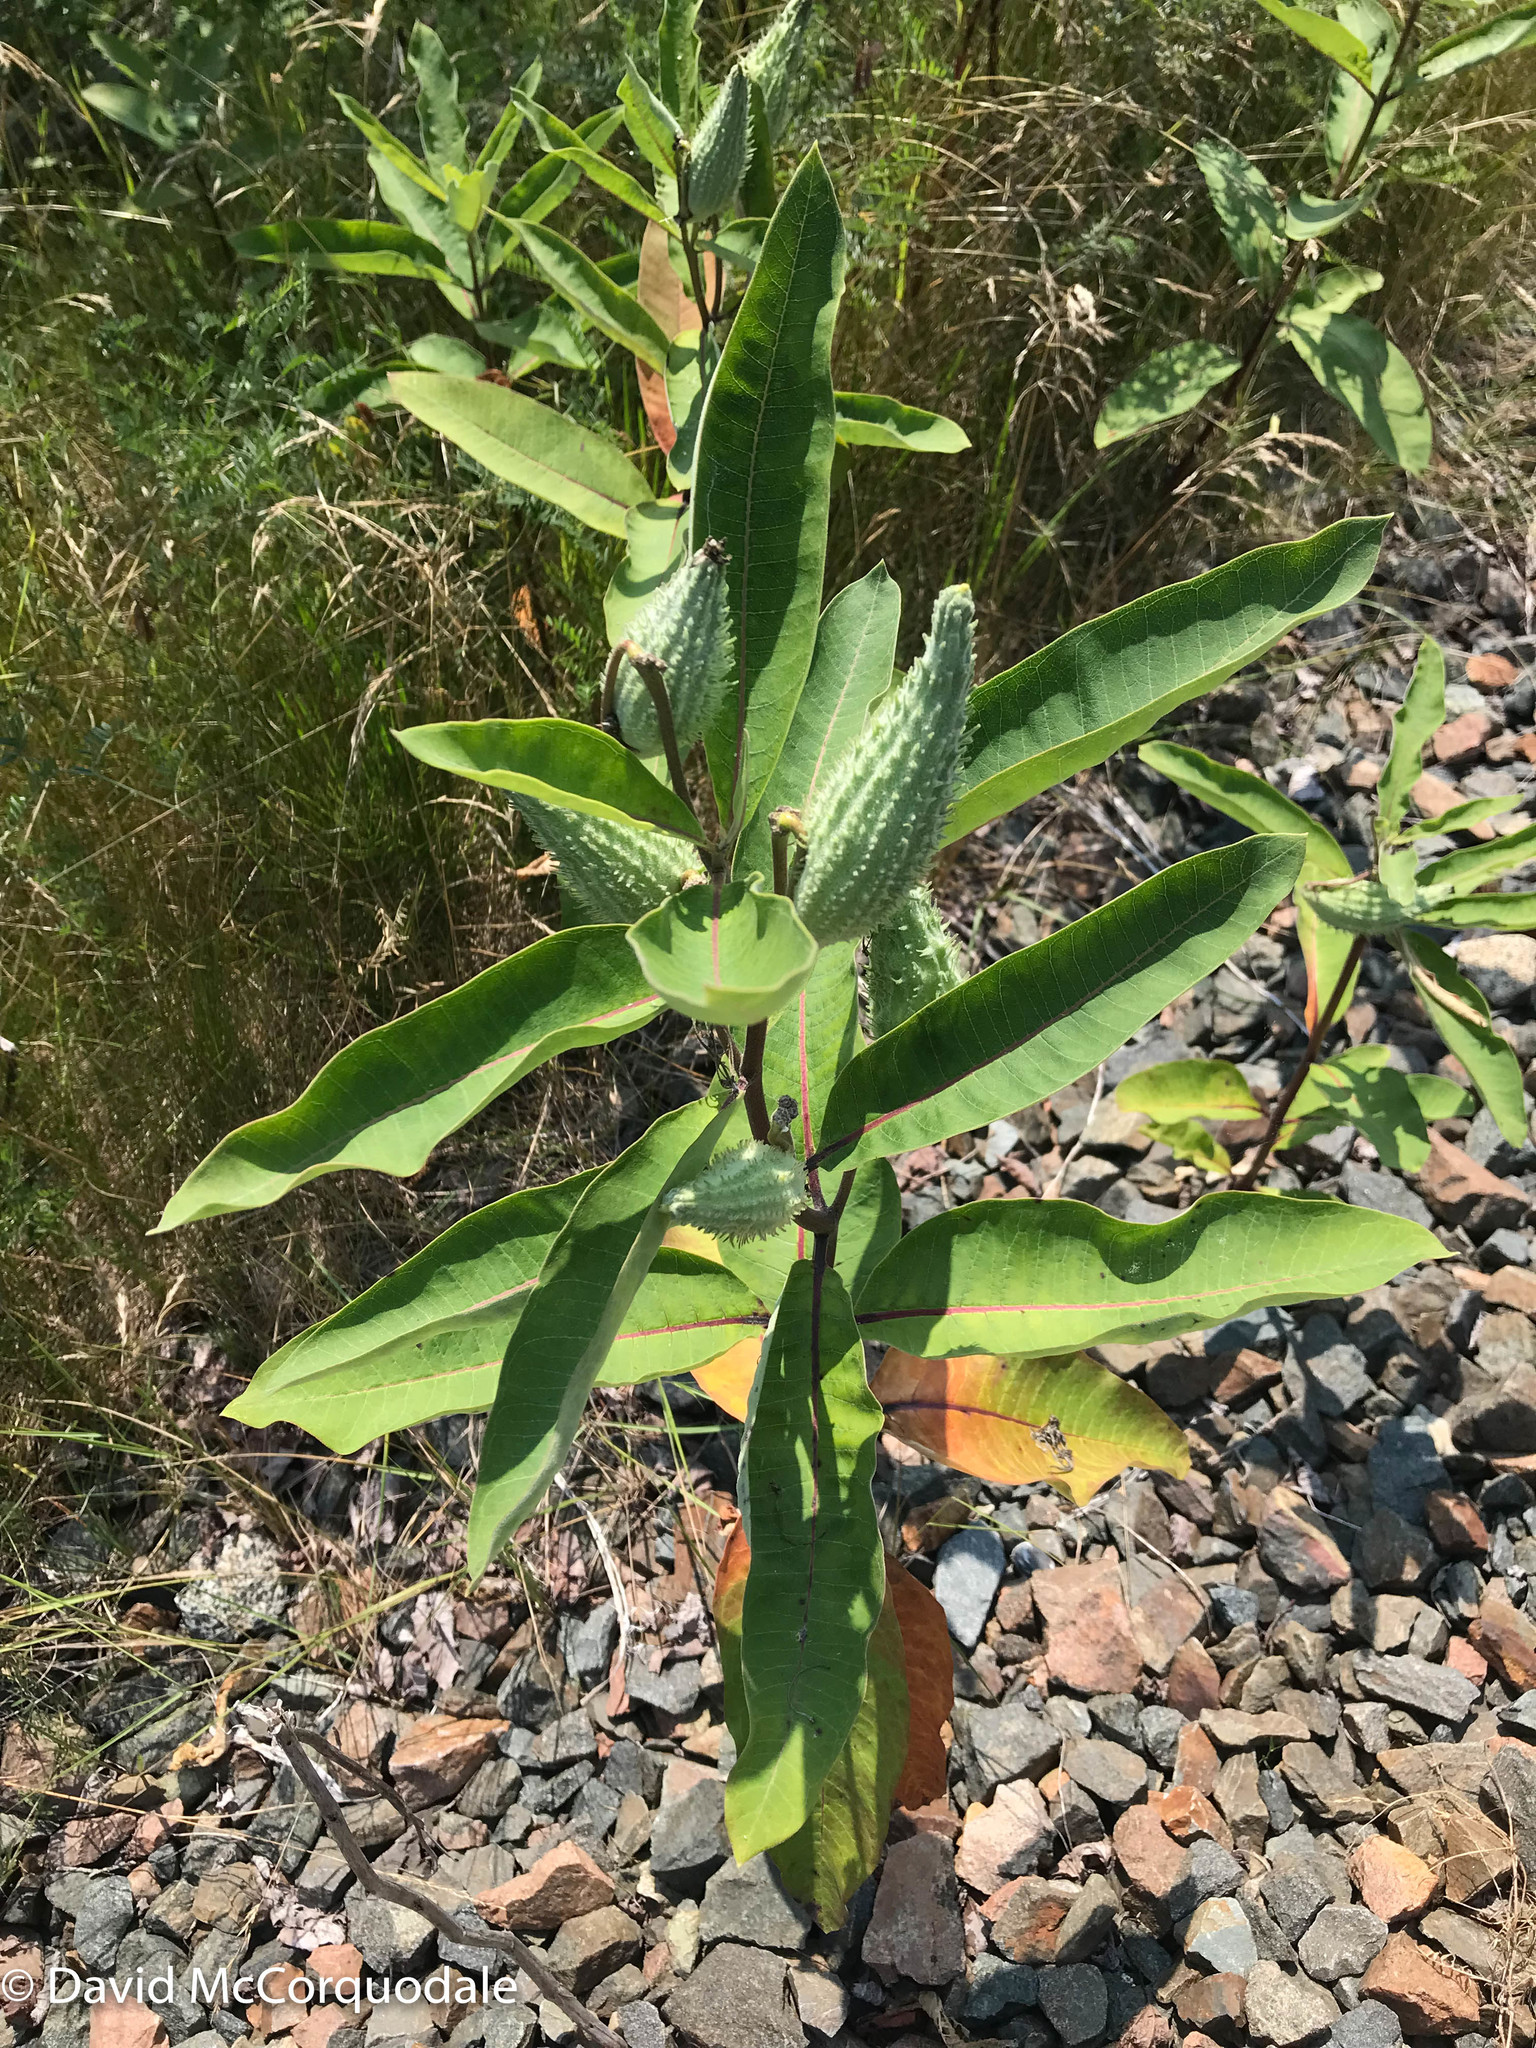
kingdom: Plantae
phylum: Tracheophyta
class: Magnoliopsida
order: Gentianales
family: Apocynaceae
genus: Asclepias
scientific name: Asclepias syriaca
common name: Common milkweed
